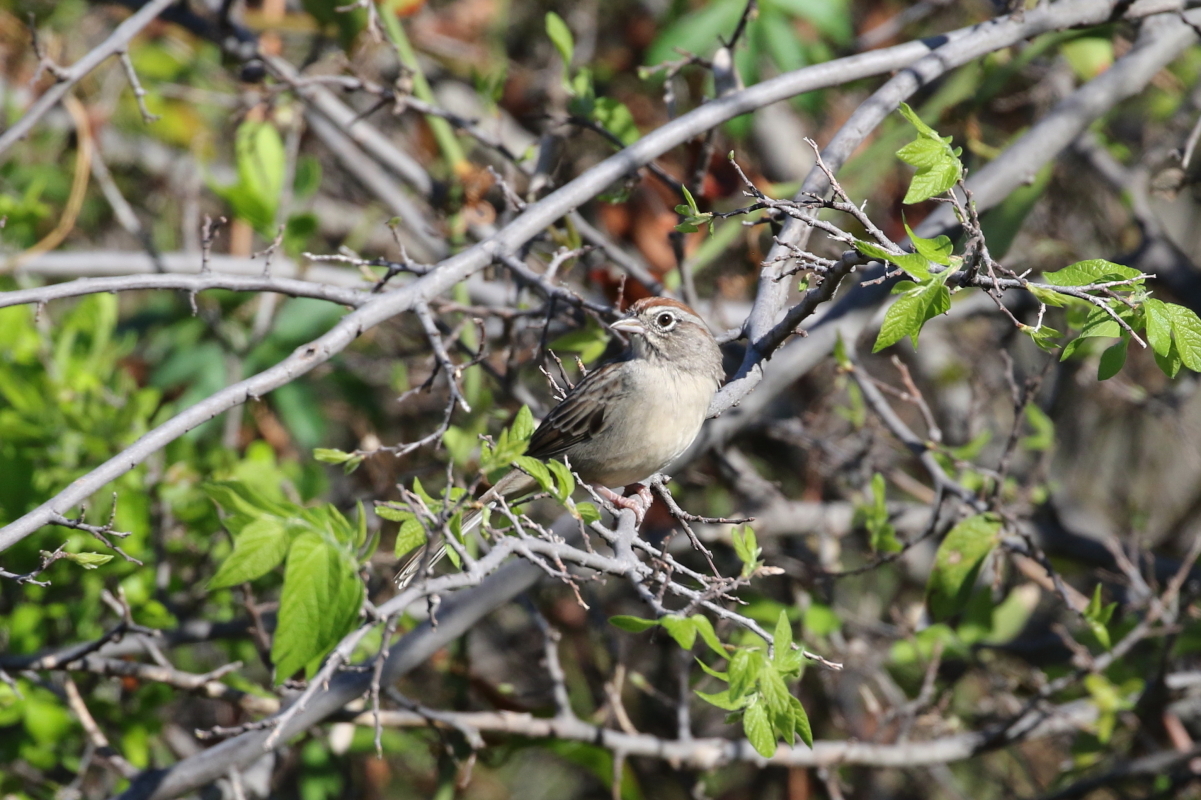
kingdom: Animalia
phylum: Chordata
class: Aves
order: Passeriformes
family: Passerellidae
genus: Aimophila
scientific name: Aimophila ruficeps
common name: Rufous-crowned sparrow
